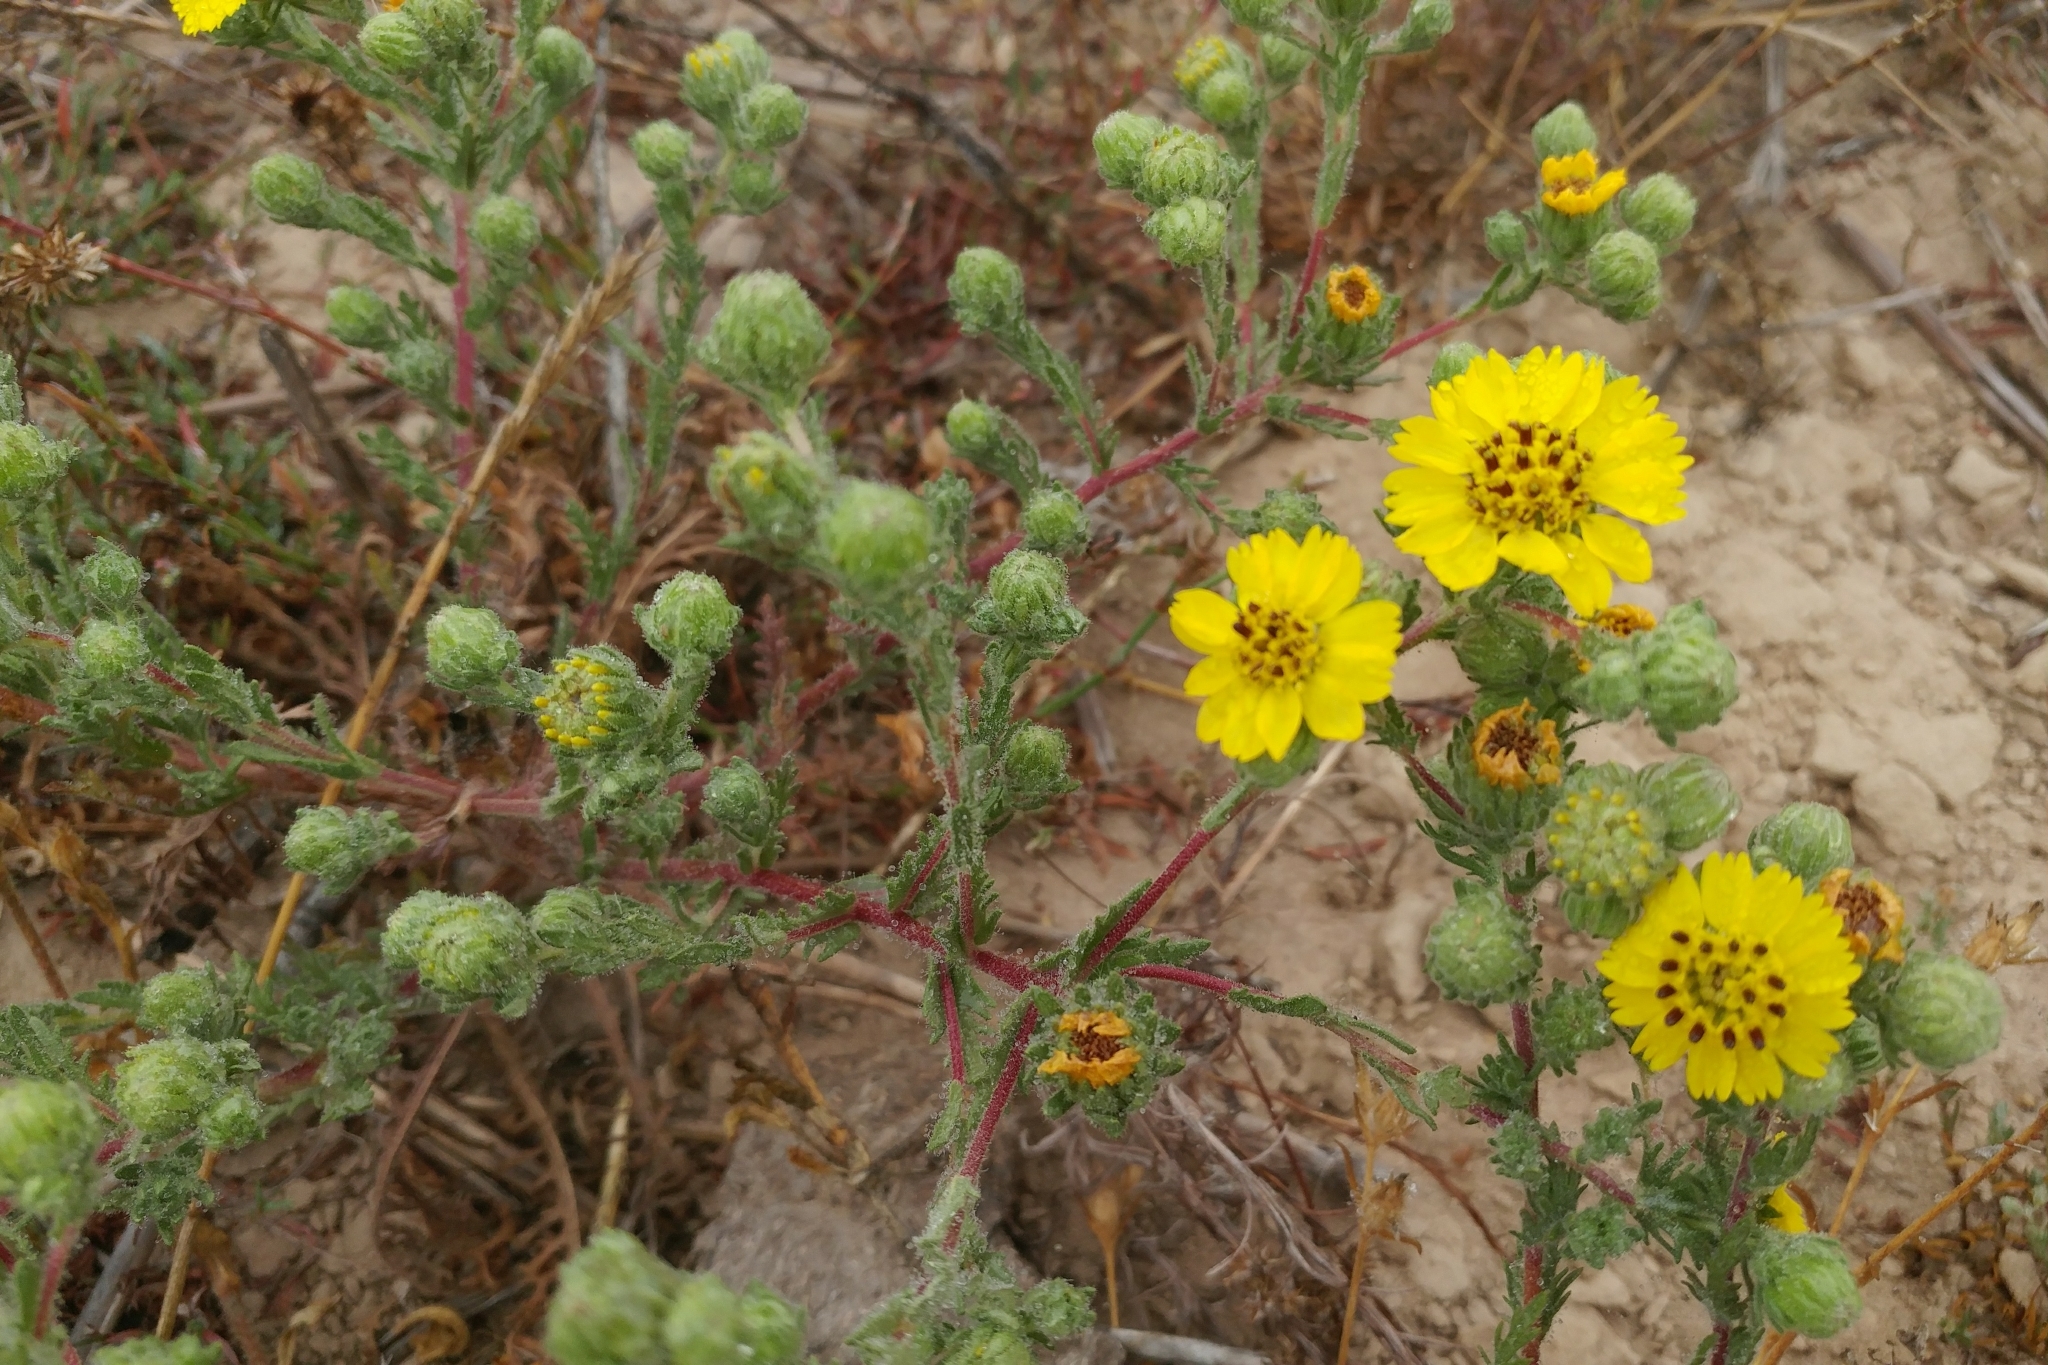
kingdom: Plantae
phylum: Tracheophyta
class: Magnoliopsida
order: Asterales
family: Asteraceae
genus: Deinandra
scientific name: Deinandra increscens
